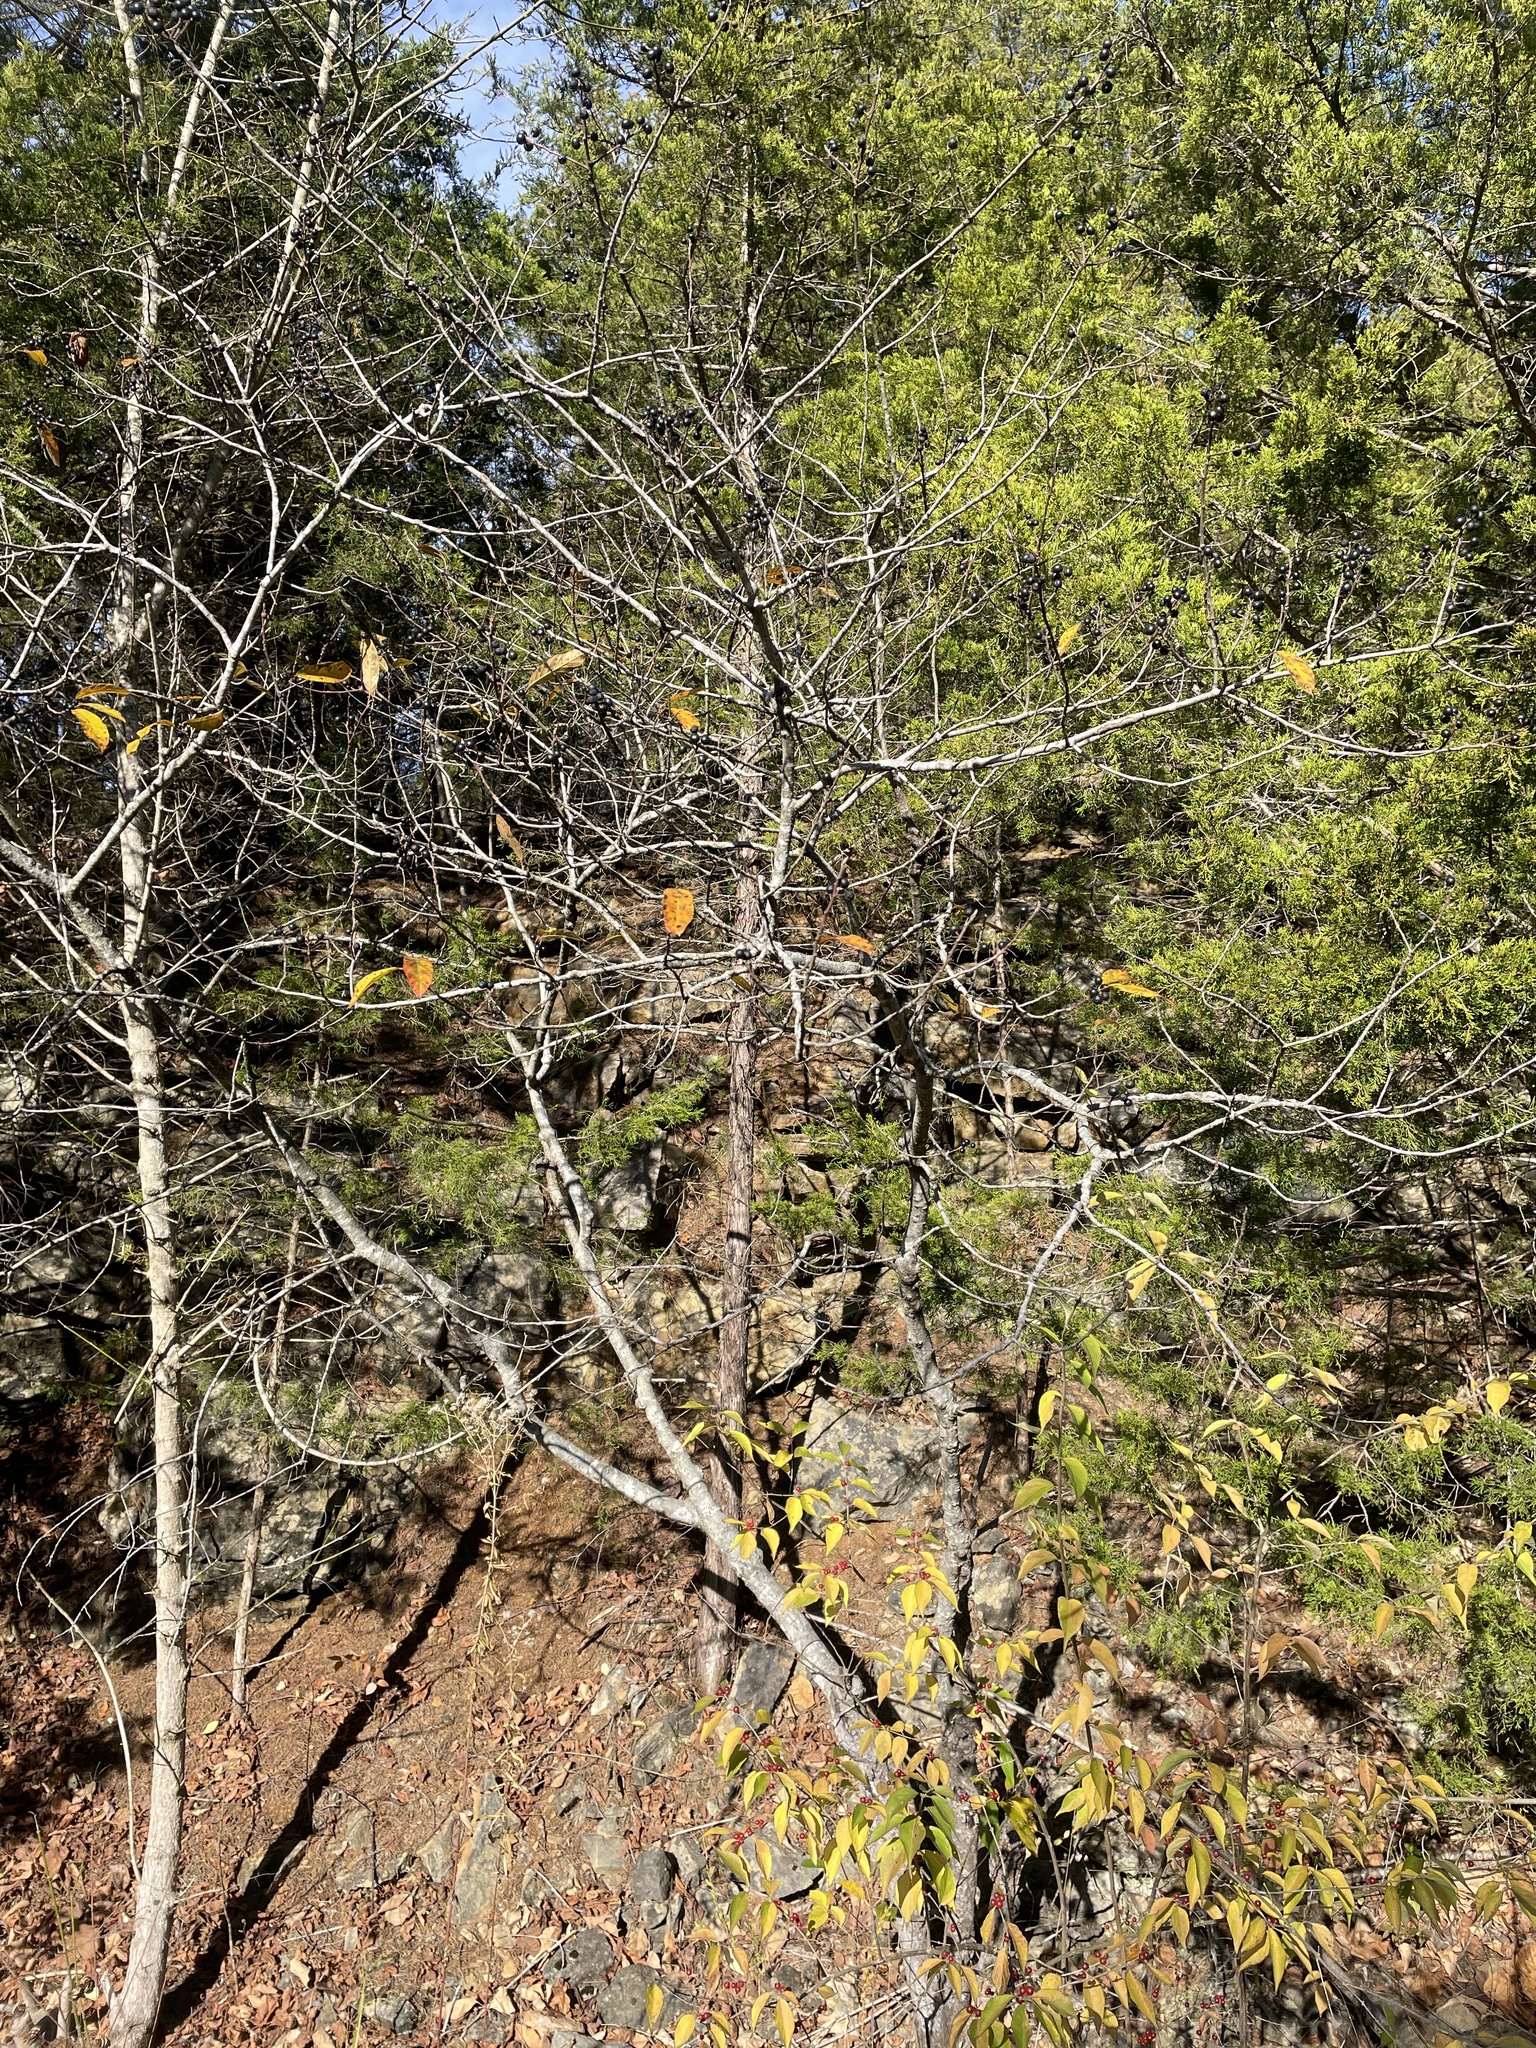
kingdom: Plantae
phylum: Tracheophyta
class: Magnoliopsida
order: Cornales
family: Nyssaceae
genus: Nyssa
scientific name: Nyssa sylvatica
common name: Black tupelo
